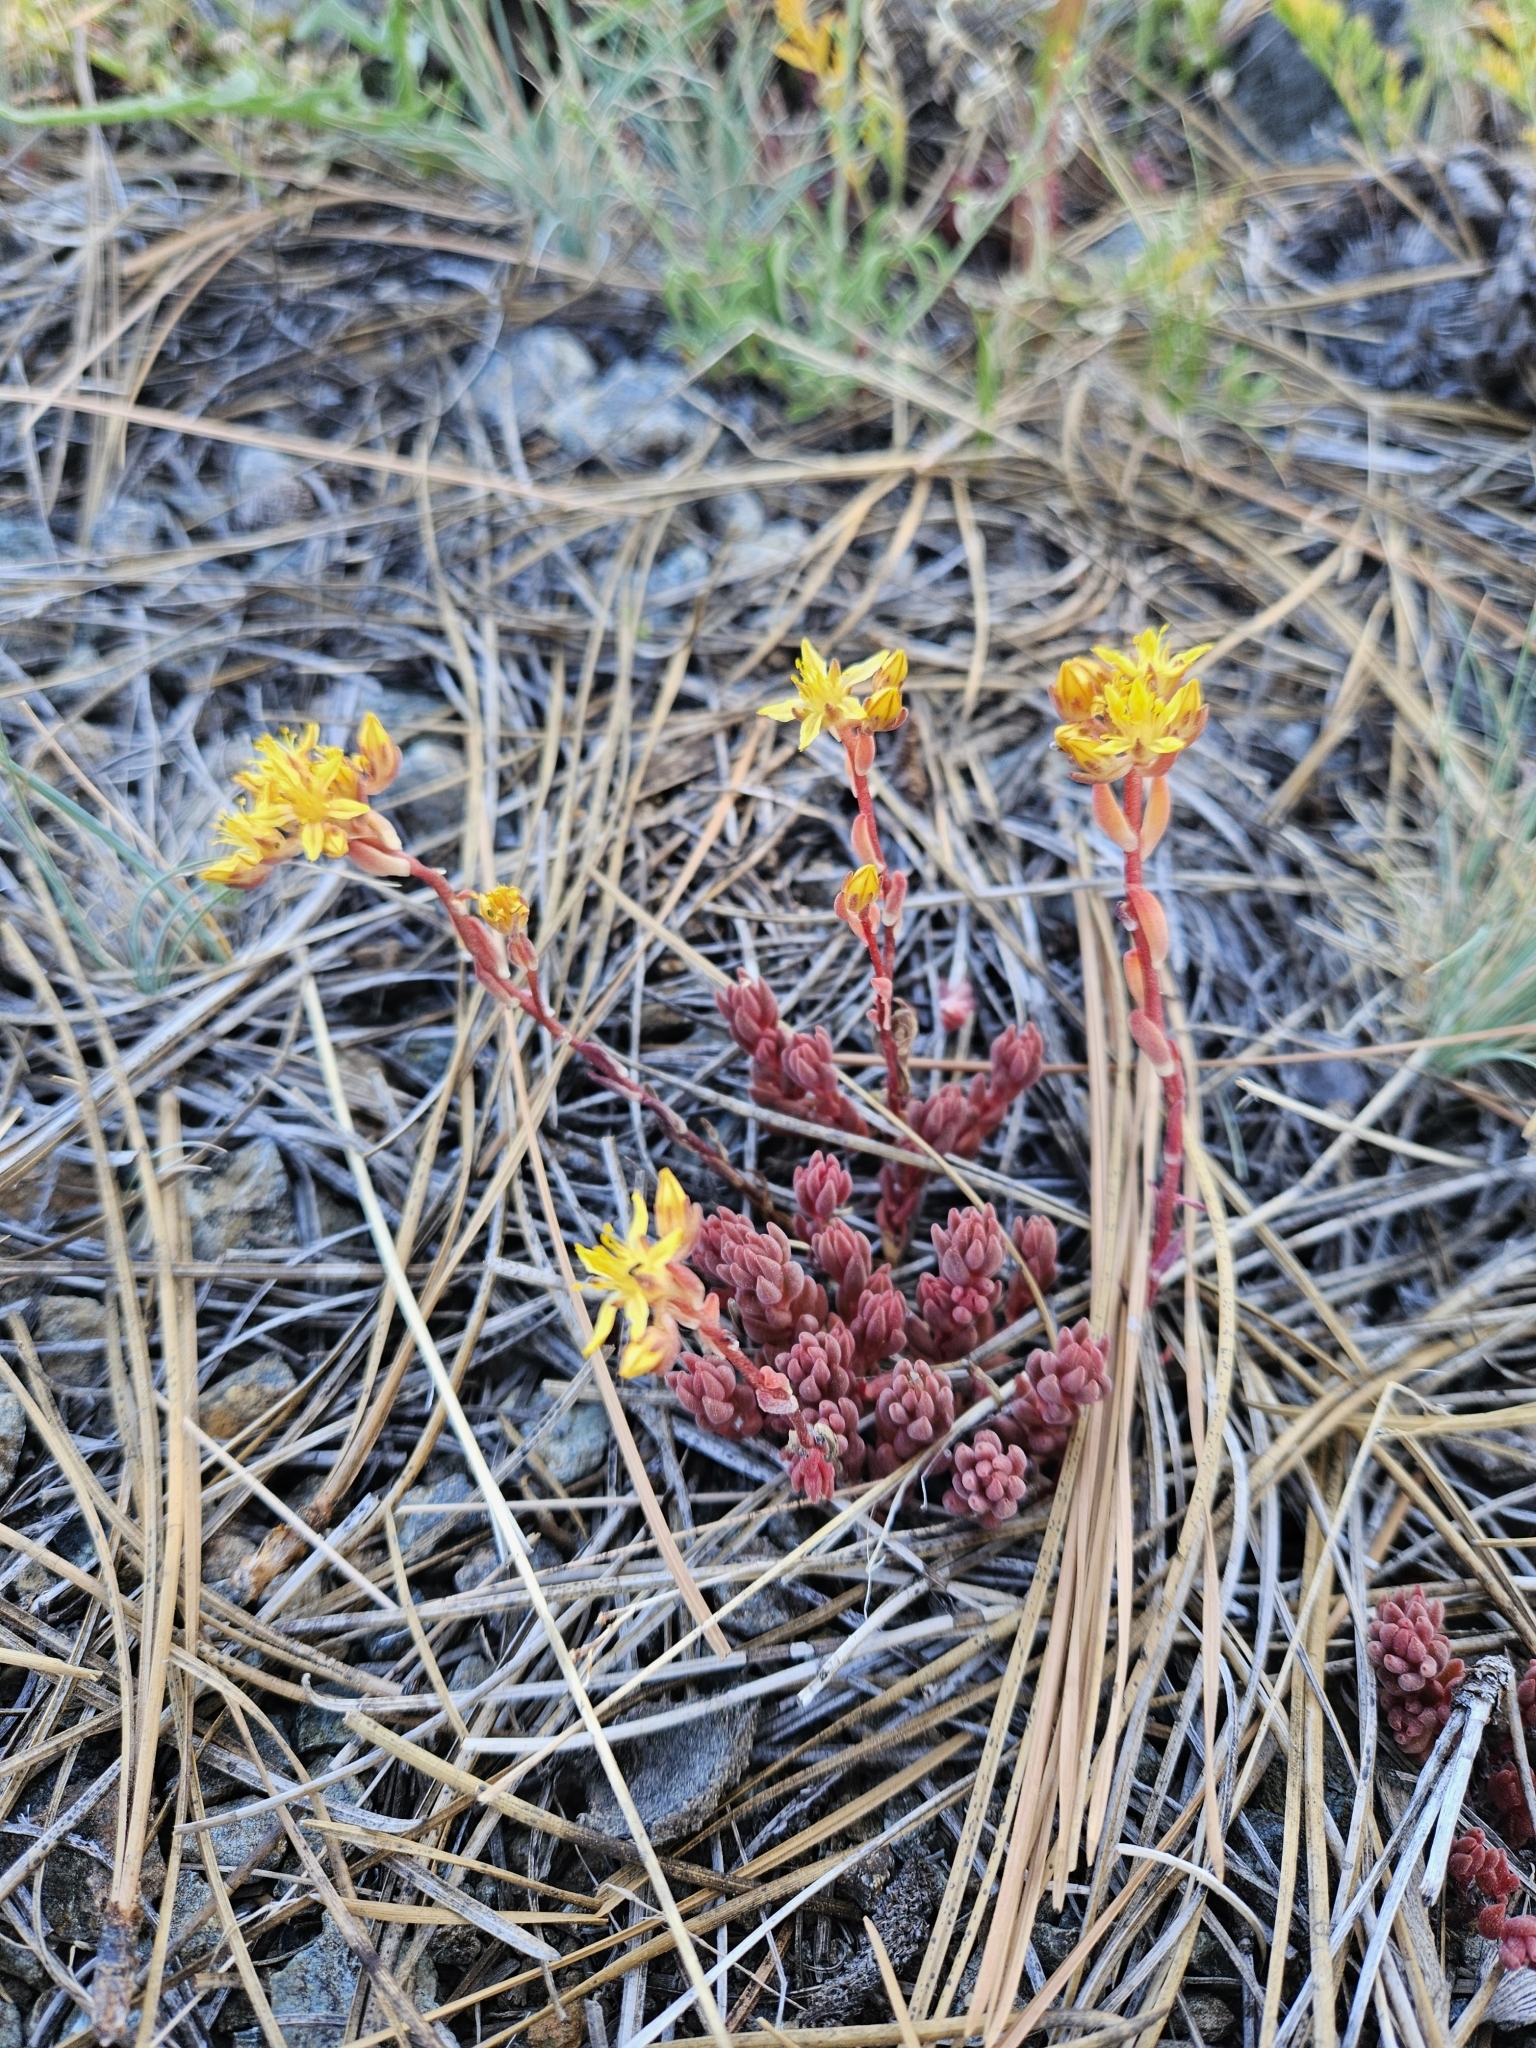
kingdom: Plantae
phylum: Tracheophyta
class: Magnoliopsida
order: Saxifragales
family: Crassulaceae
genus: Sedum
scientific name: Sedum lanceolatum
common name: Common stonecrop
